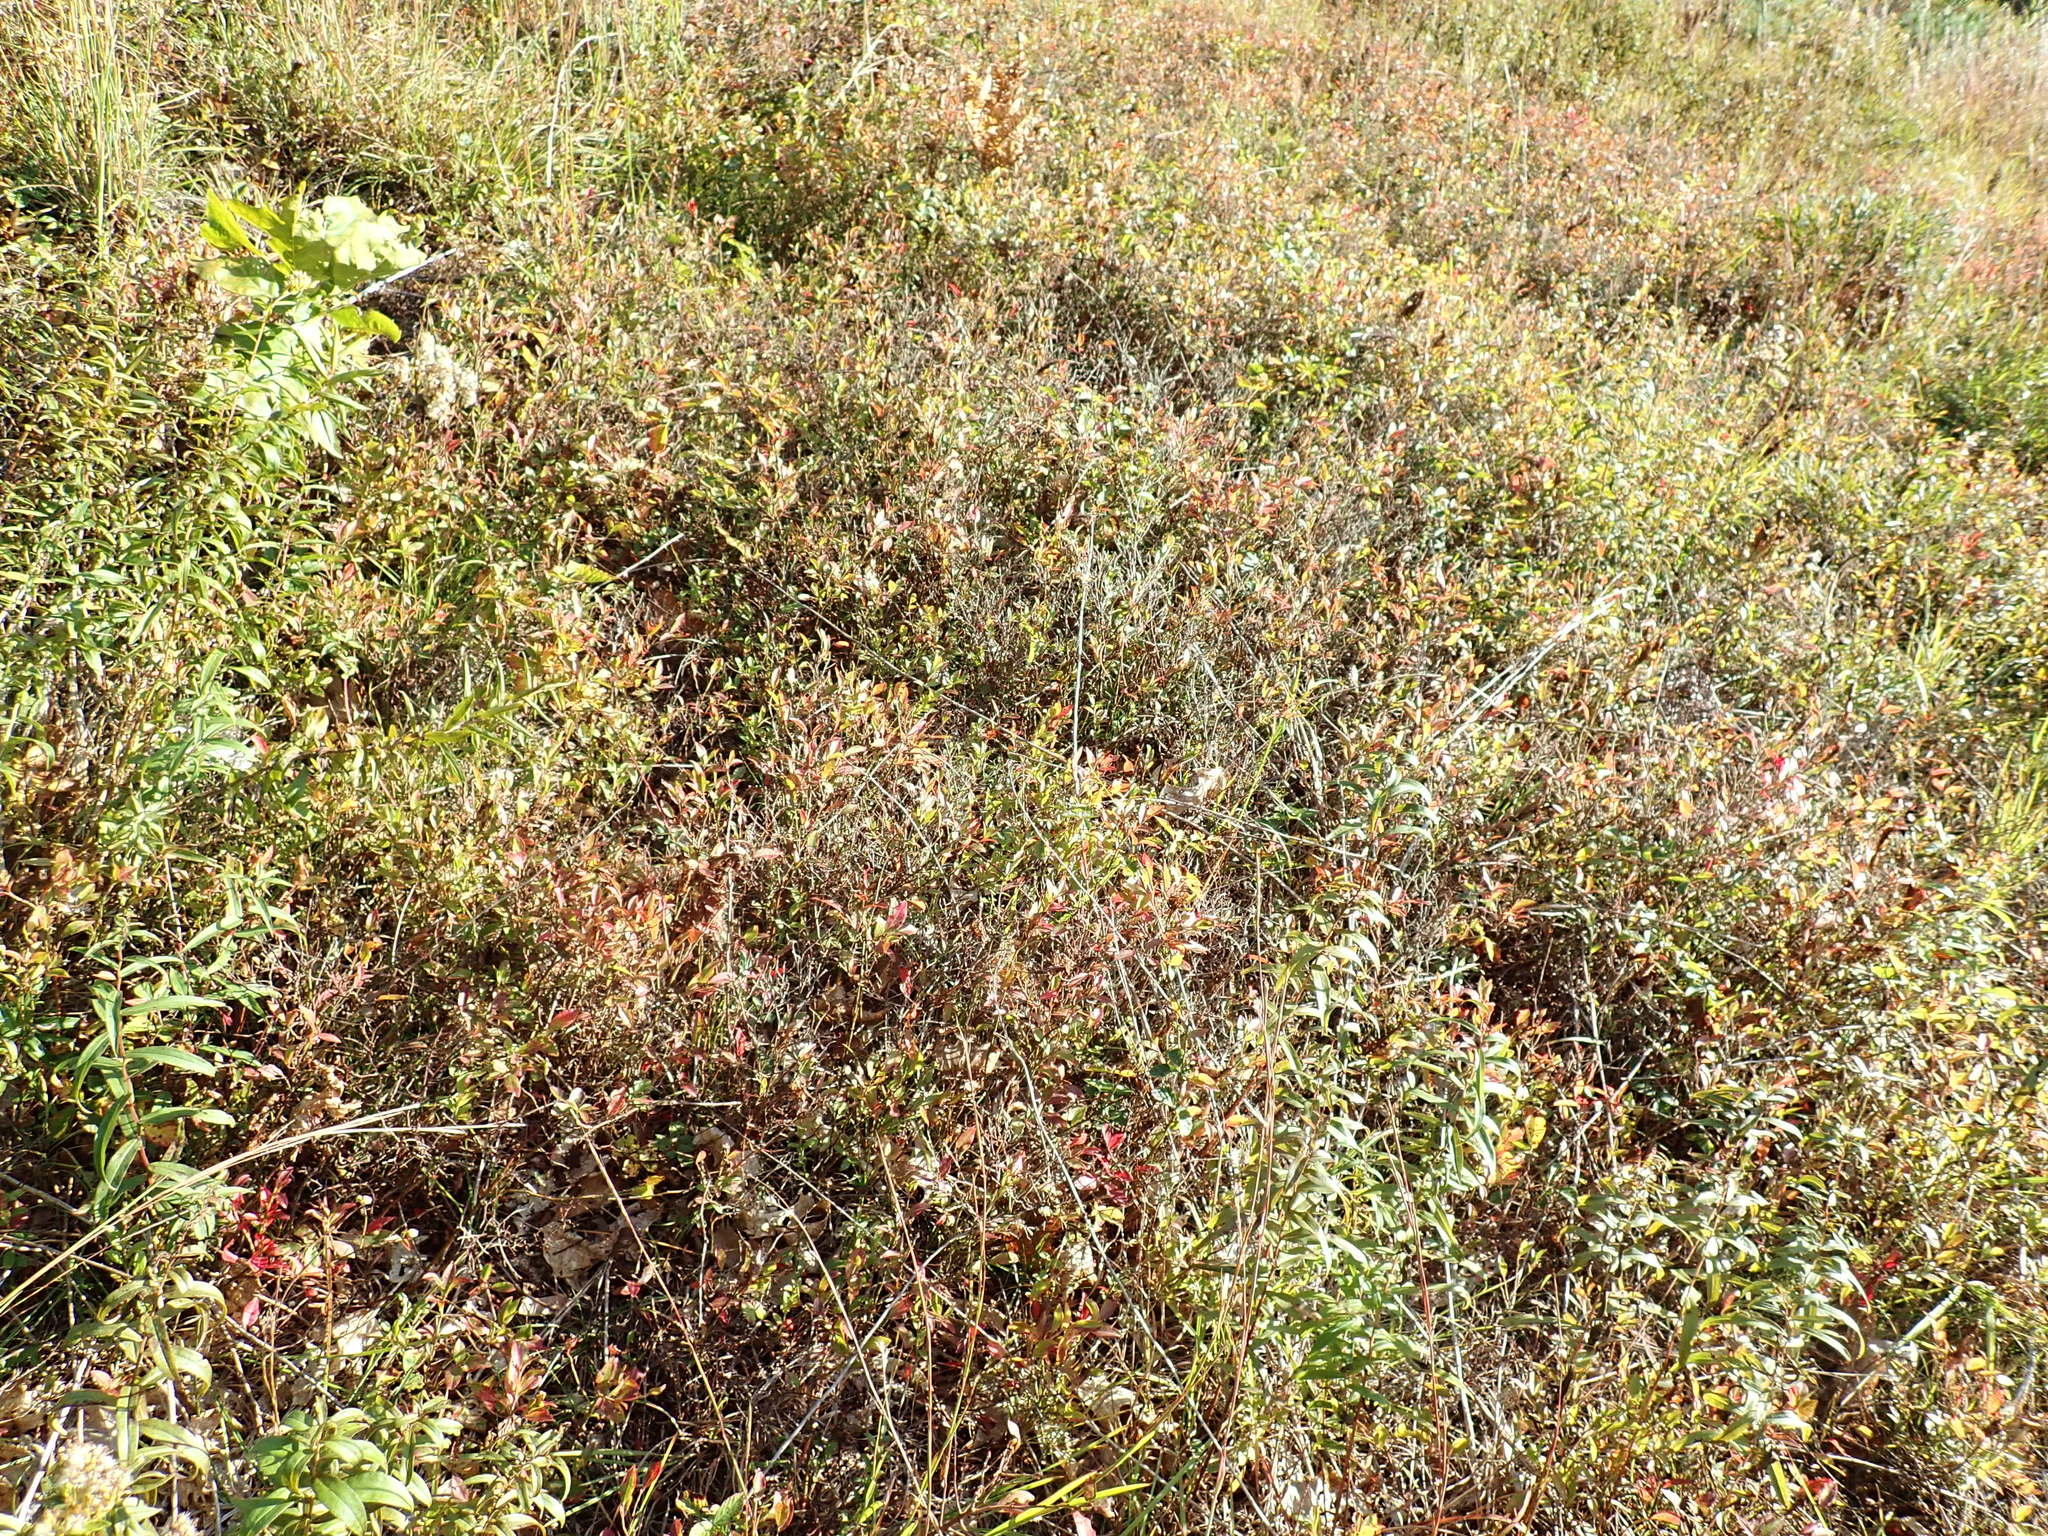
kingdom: Plantae
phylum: Tracheophyta
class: Magnoliopsida
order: Ericales
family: Ericaceae
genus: Vaccinium
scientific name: Vaccinium angustifolium
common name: Early lowbush blueberry
